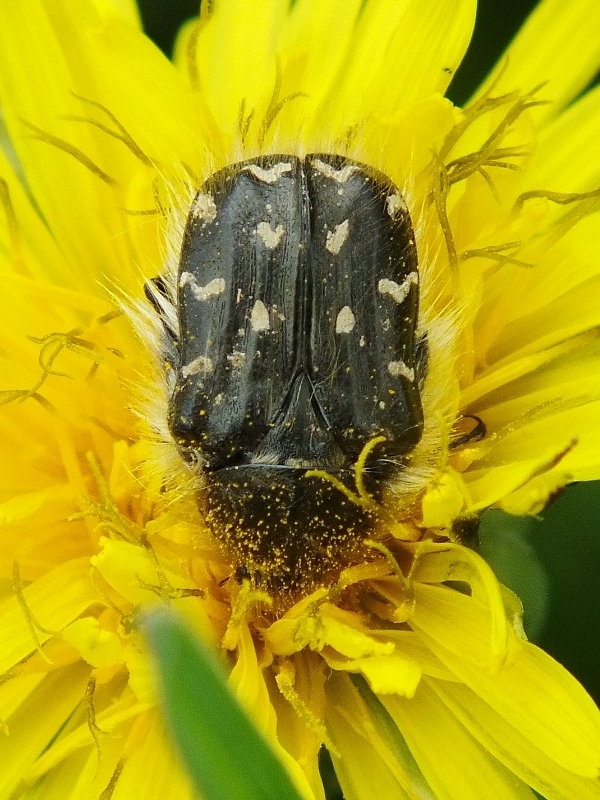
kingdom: Animalia
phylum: Arthropoda
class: Insecta
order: Coleoptera
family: Scarabaeidae
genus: Tropinota
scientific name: Tropinota hirta
